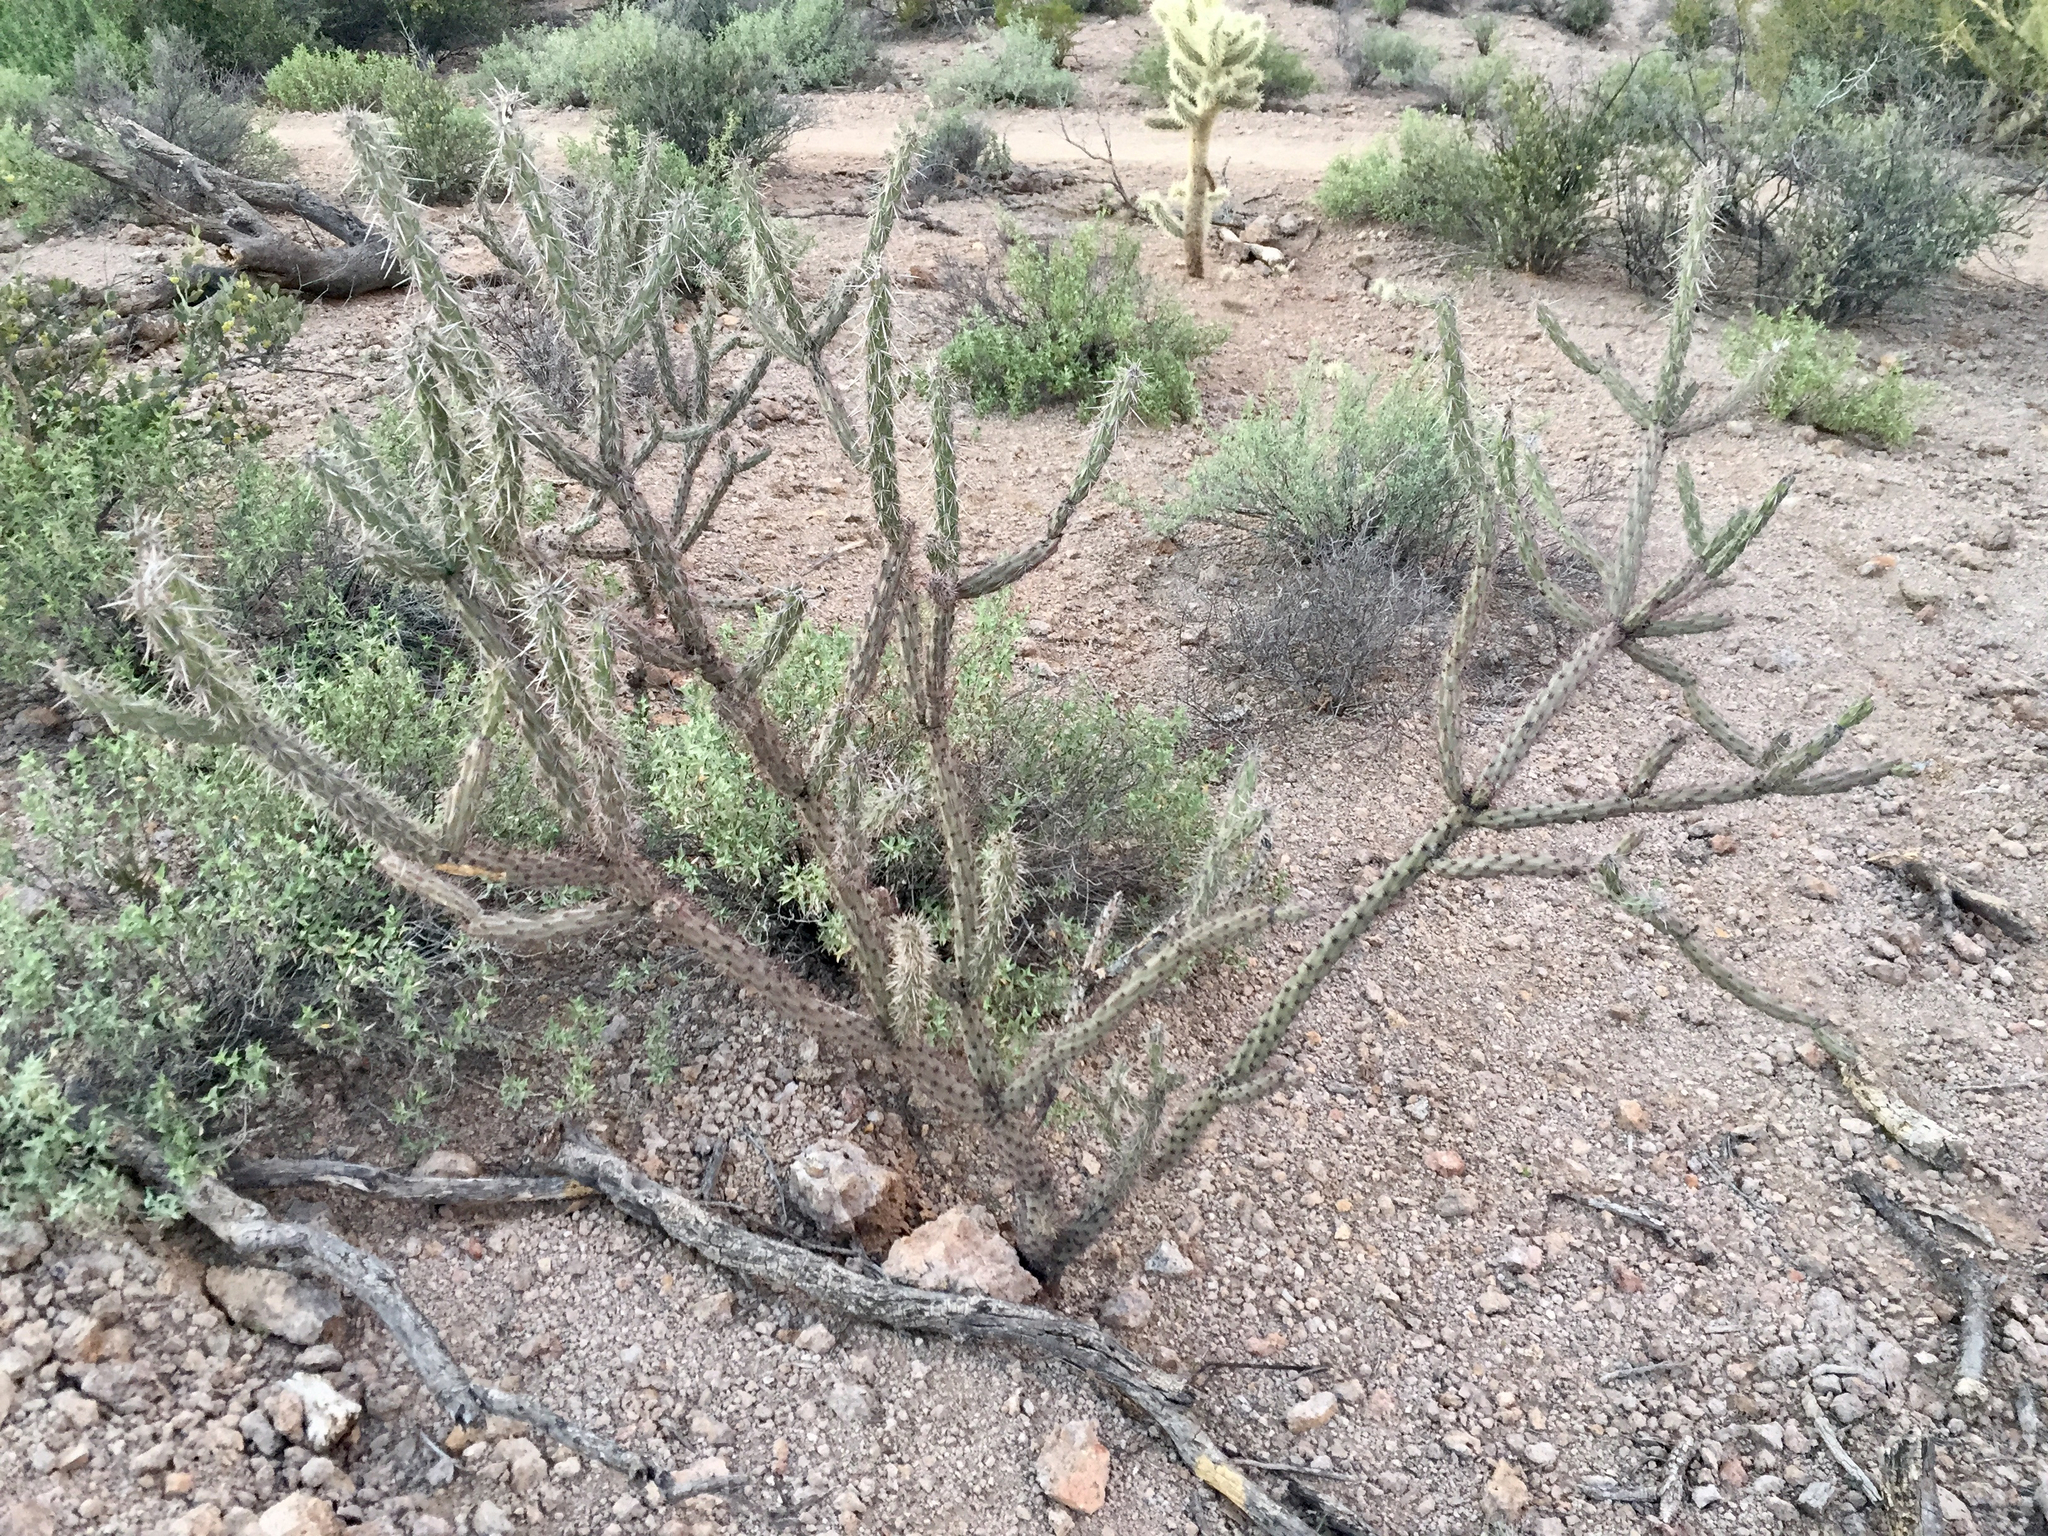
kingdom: Plantae
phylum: Tracheophyta
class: Magnoliopsida
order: Caryophyllales
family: Cactaceae
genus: Cylindropuntia
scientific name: Cylindropuntia acanthocarpa
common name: Buckhorn cholla
